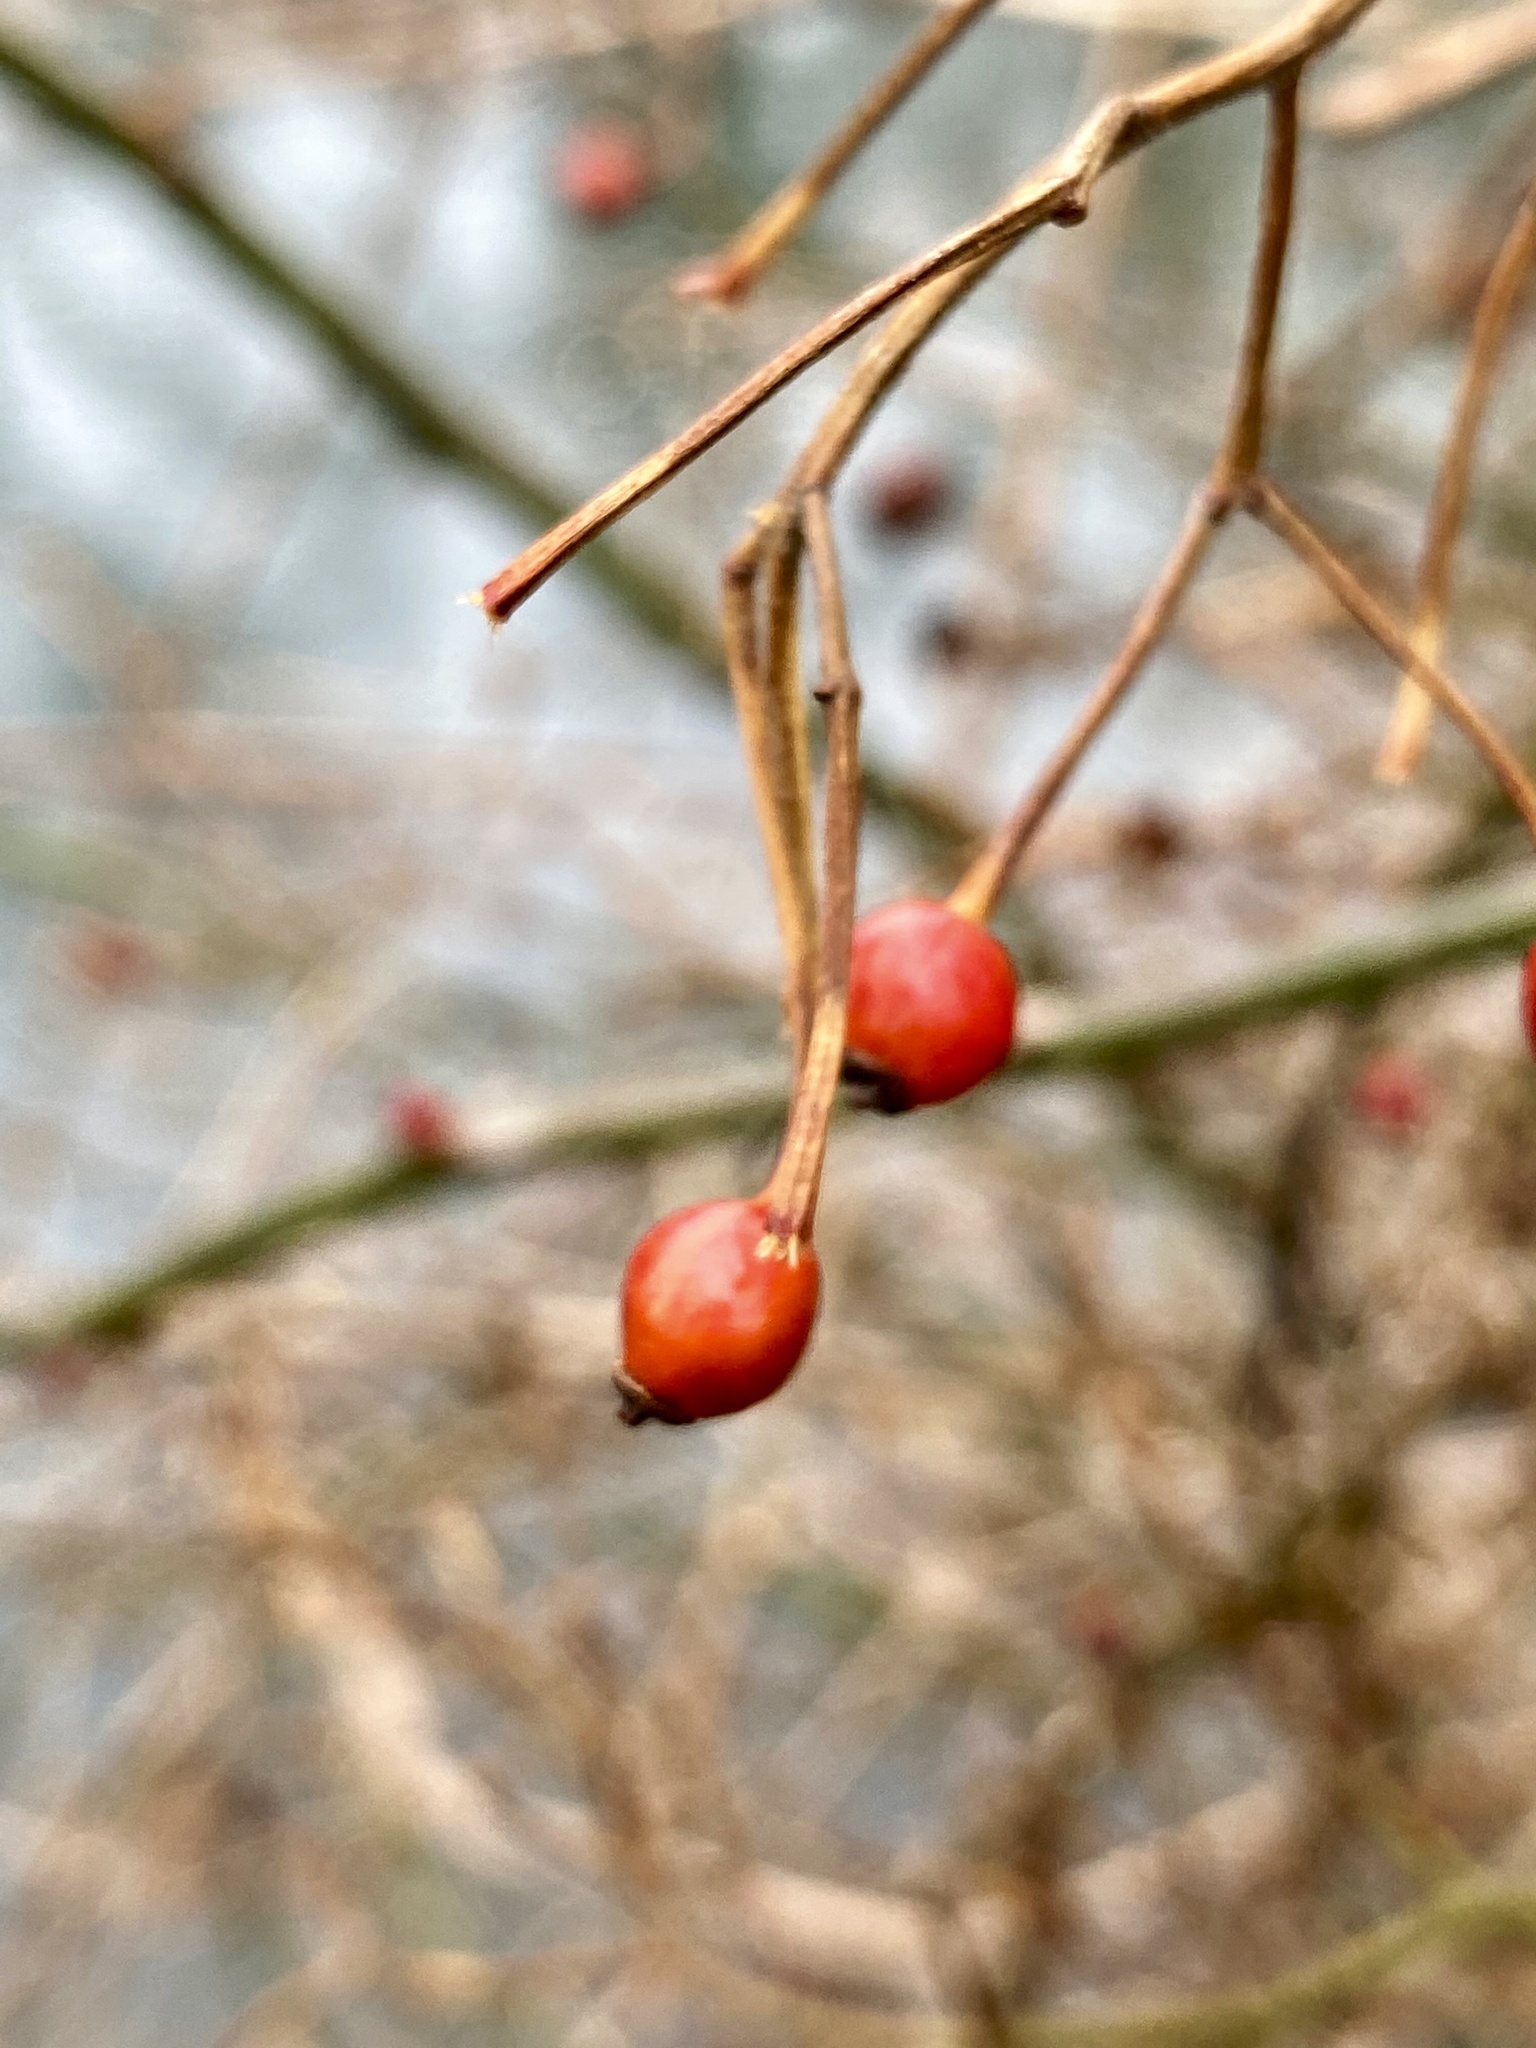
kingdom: Plantae
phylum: Tracheophyta
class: Magnoliopsida
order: Rosales
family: Rosaceae
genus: Rosa
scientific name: Rosa multiflora
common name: Multiflora rose
